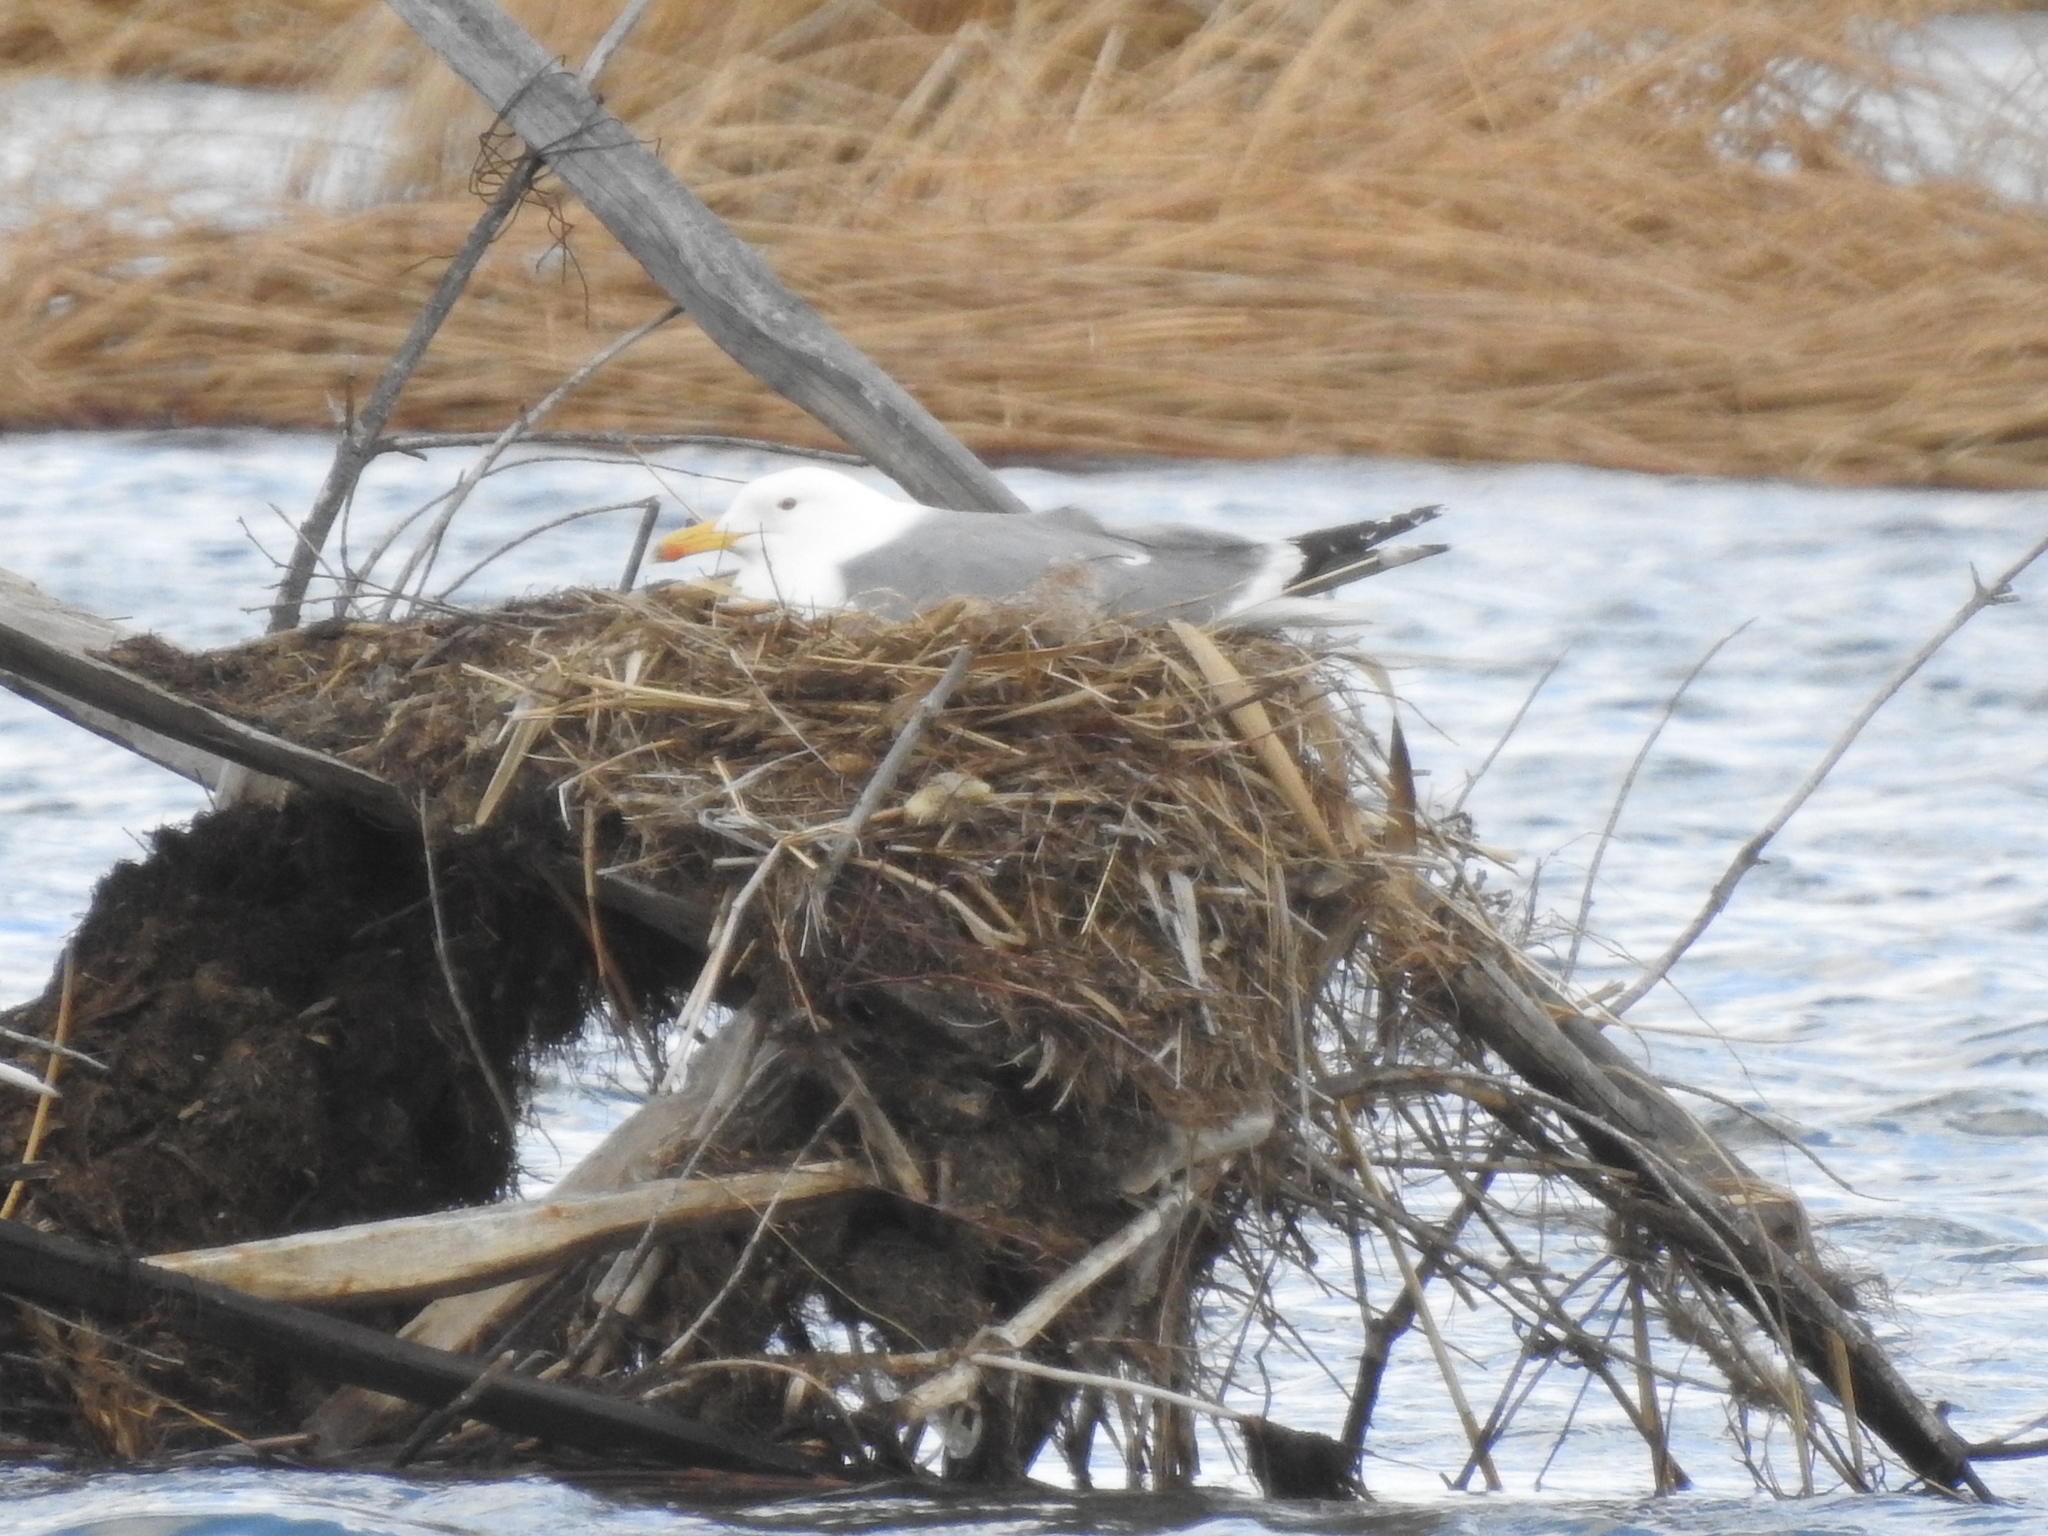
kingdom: Animalia
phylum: Chordata
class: Aves
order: Charadriiformes
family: Laridae
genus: Larus
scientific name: Larus fuscus
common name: Lesser black-backed gull
